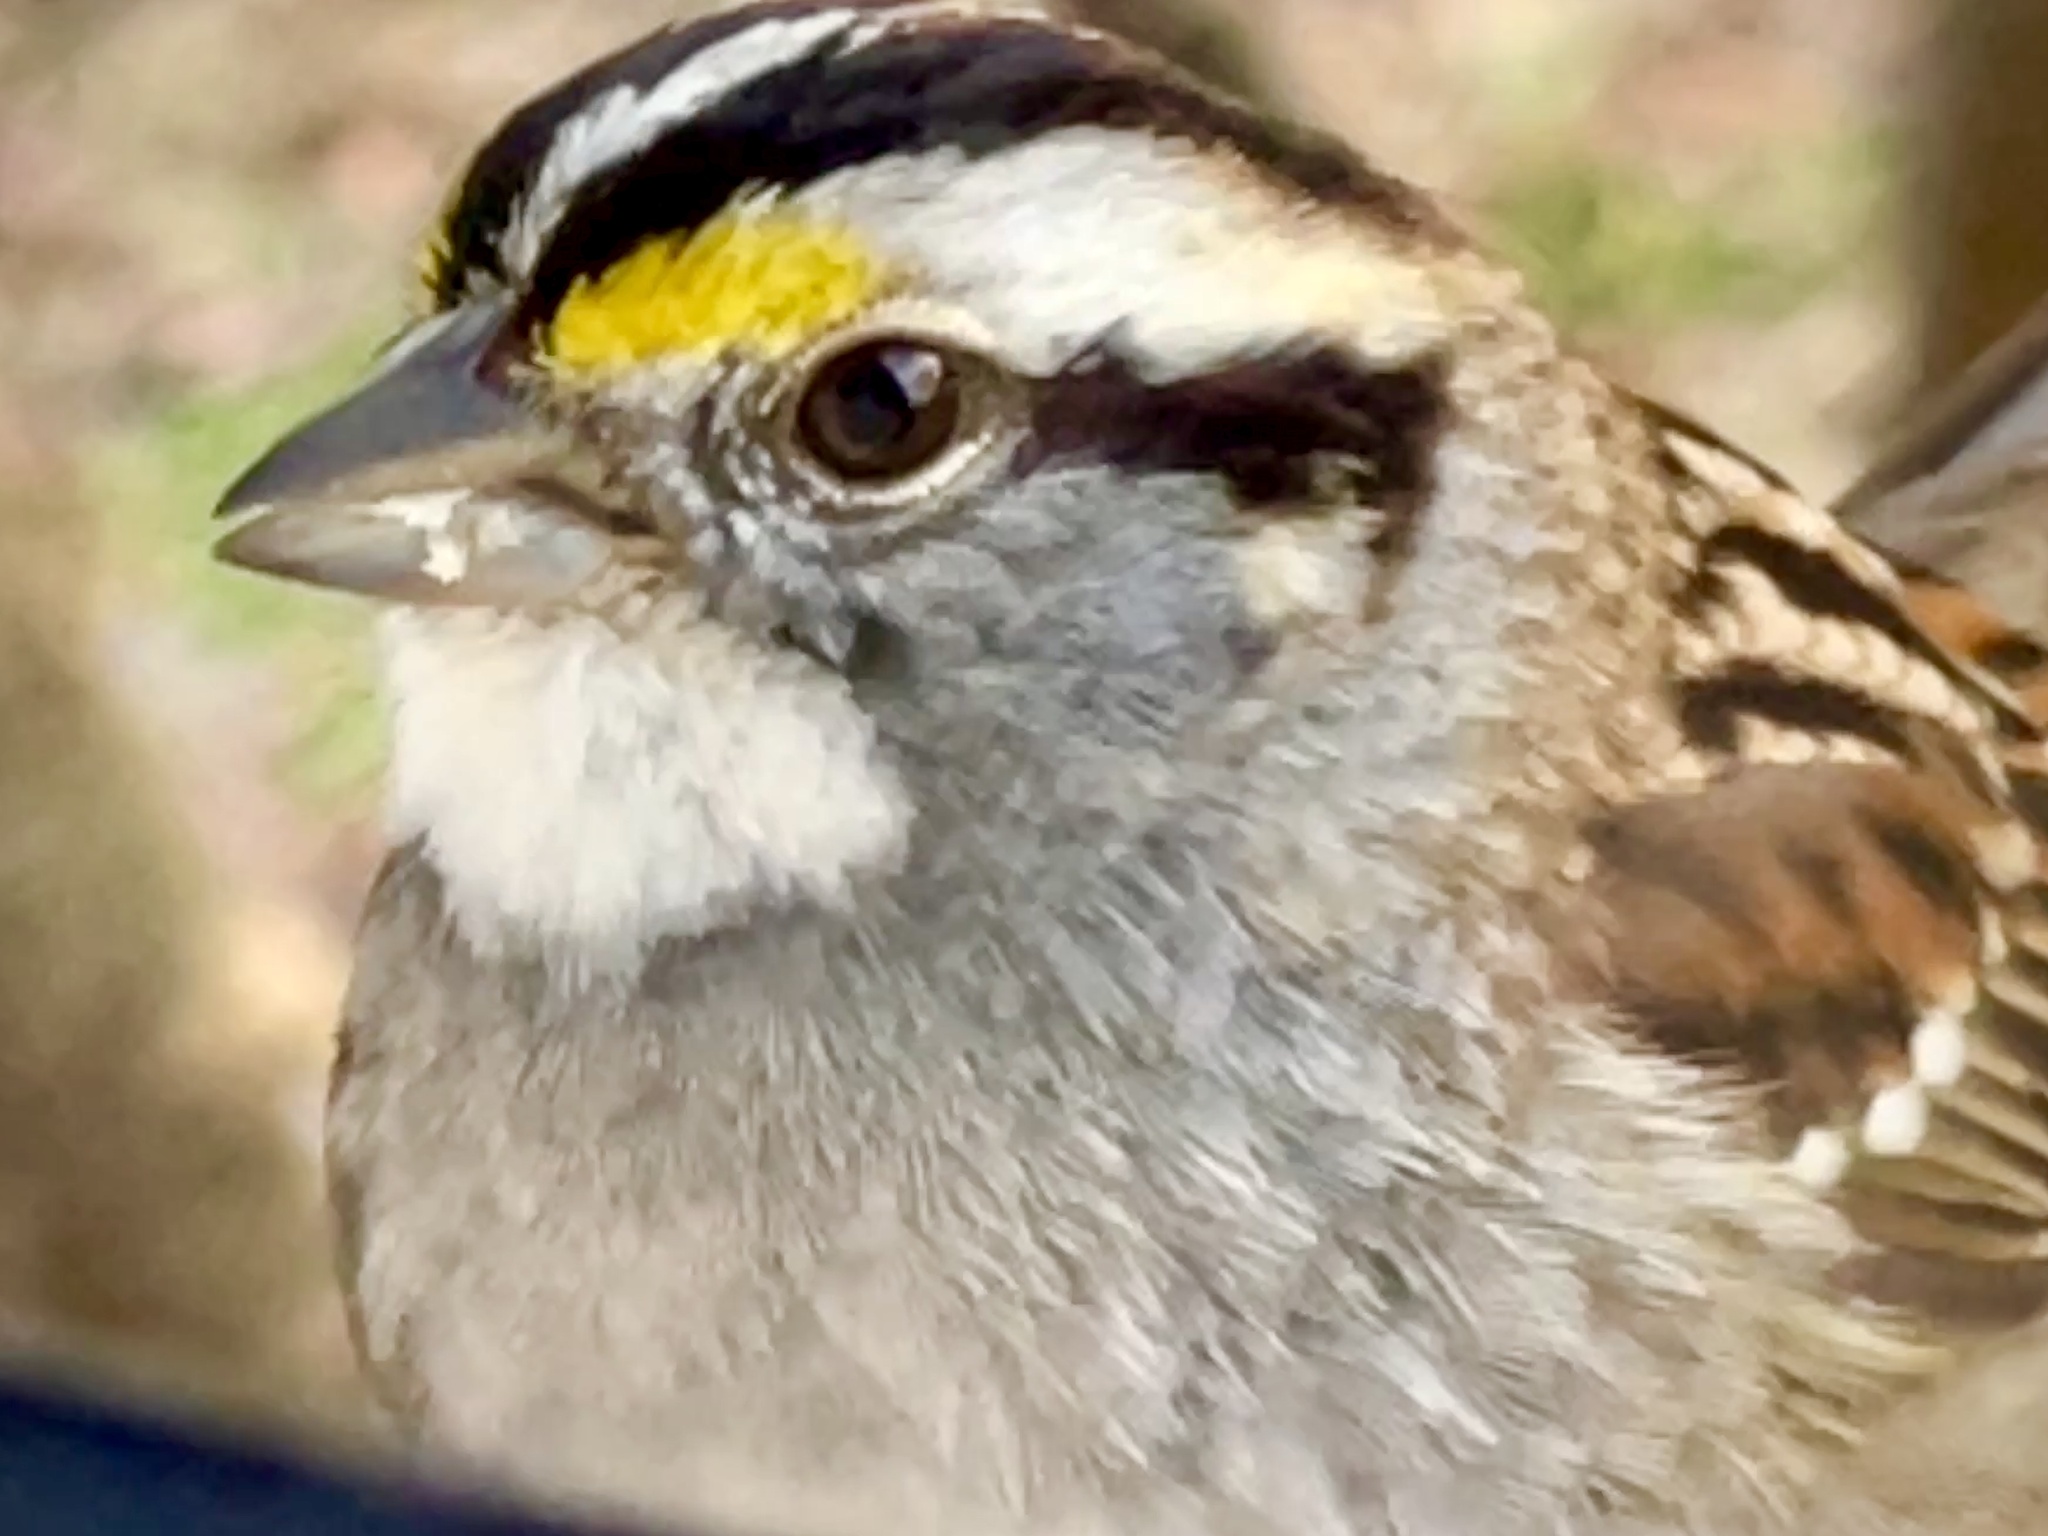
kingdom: Animalia
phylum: Chordata
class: Aves
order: Passeriformes
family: Passerellidae
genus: Zonotrichia
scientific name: Zonotrichia albicollis
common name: White-throated sparrow
